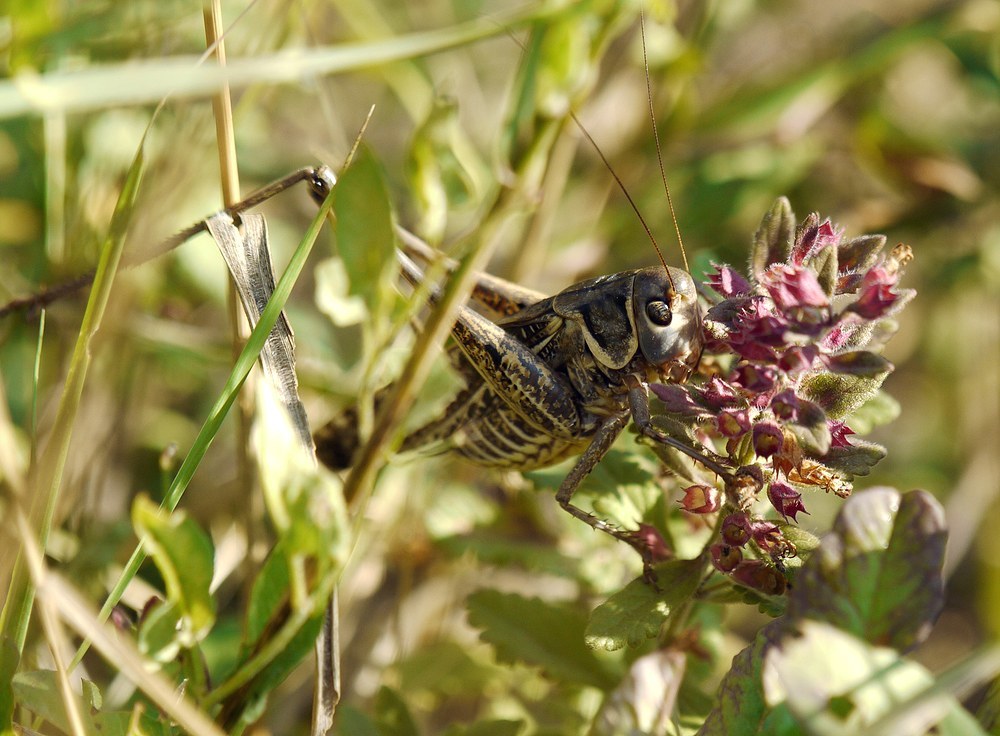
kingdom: Animalia
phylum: Arthropoda
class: Insecta
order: Orthoptera
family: Tettigoniidae
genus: Decticus
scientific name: Decticus albifrons
